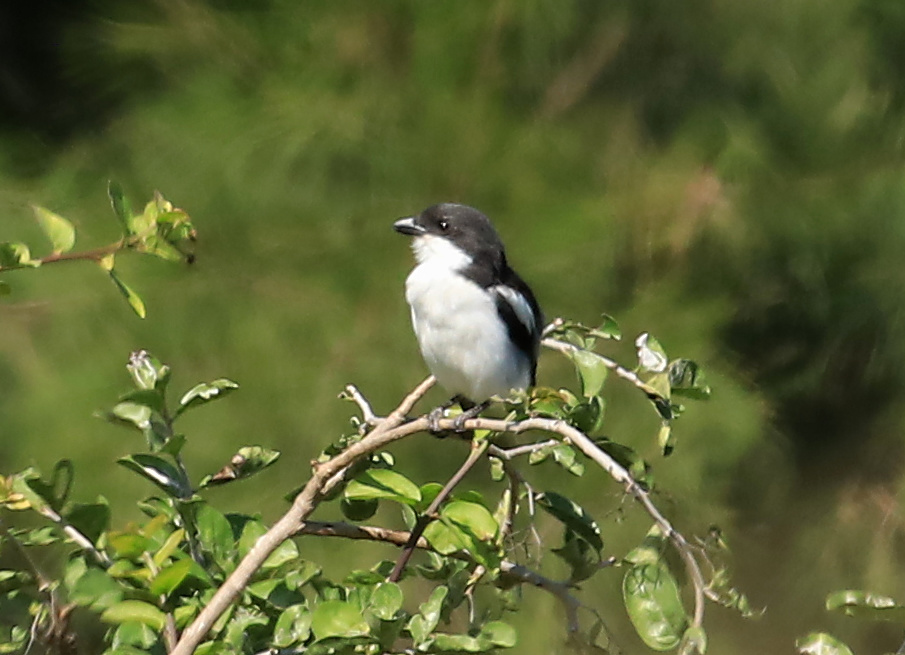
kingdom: Animalia
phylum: Chordata
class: Aves
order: Passeriformes
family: Laniidae
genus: Lanius
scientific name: Lanius collaris
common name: Southern fiscal
